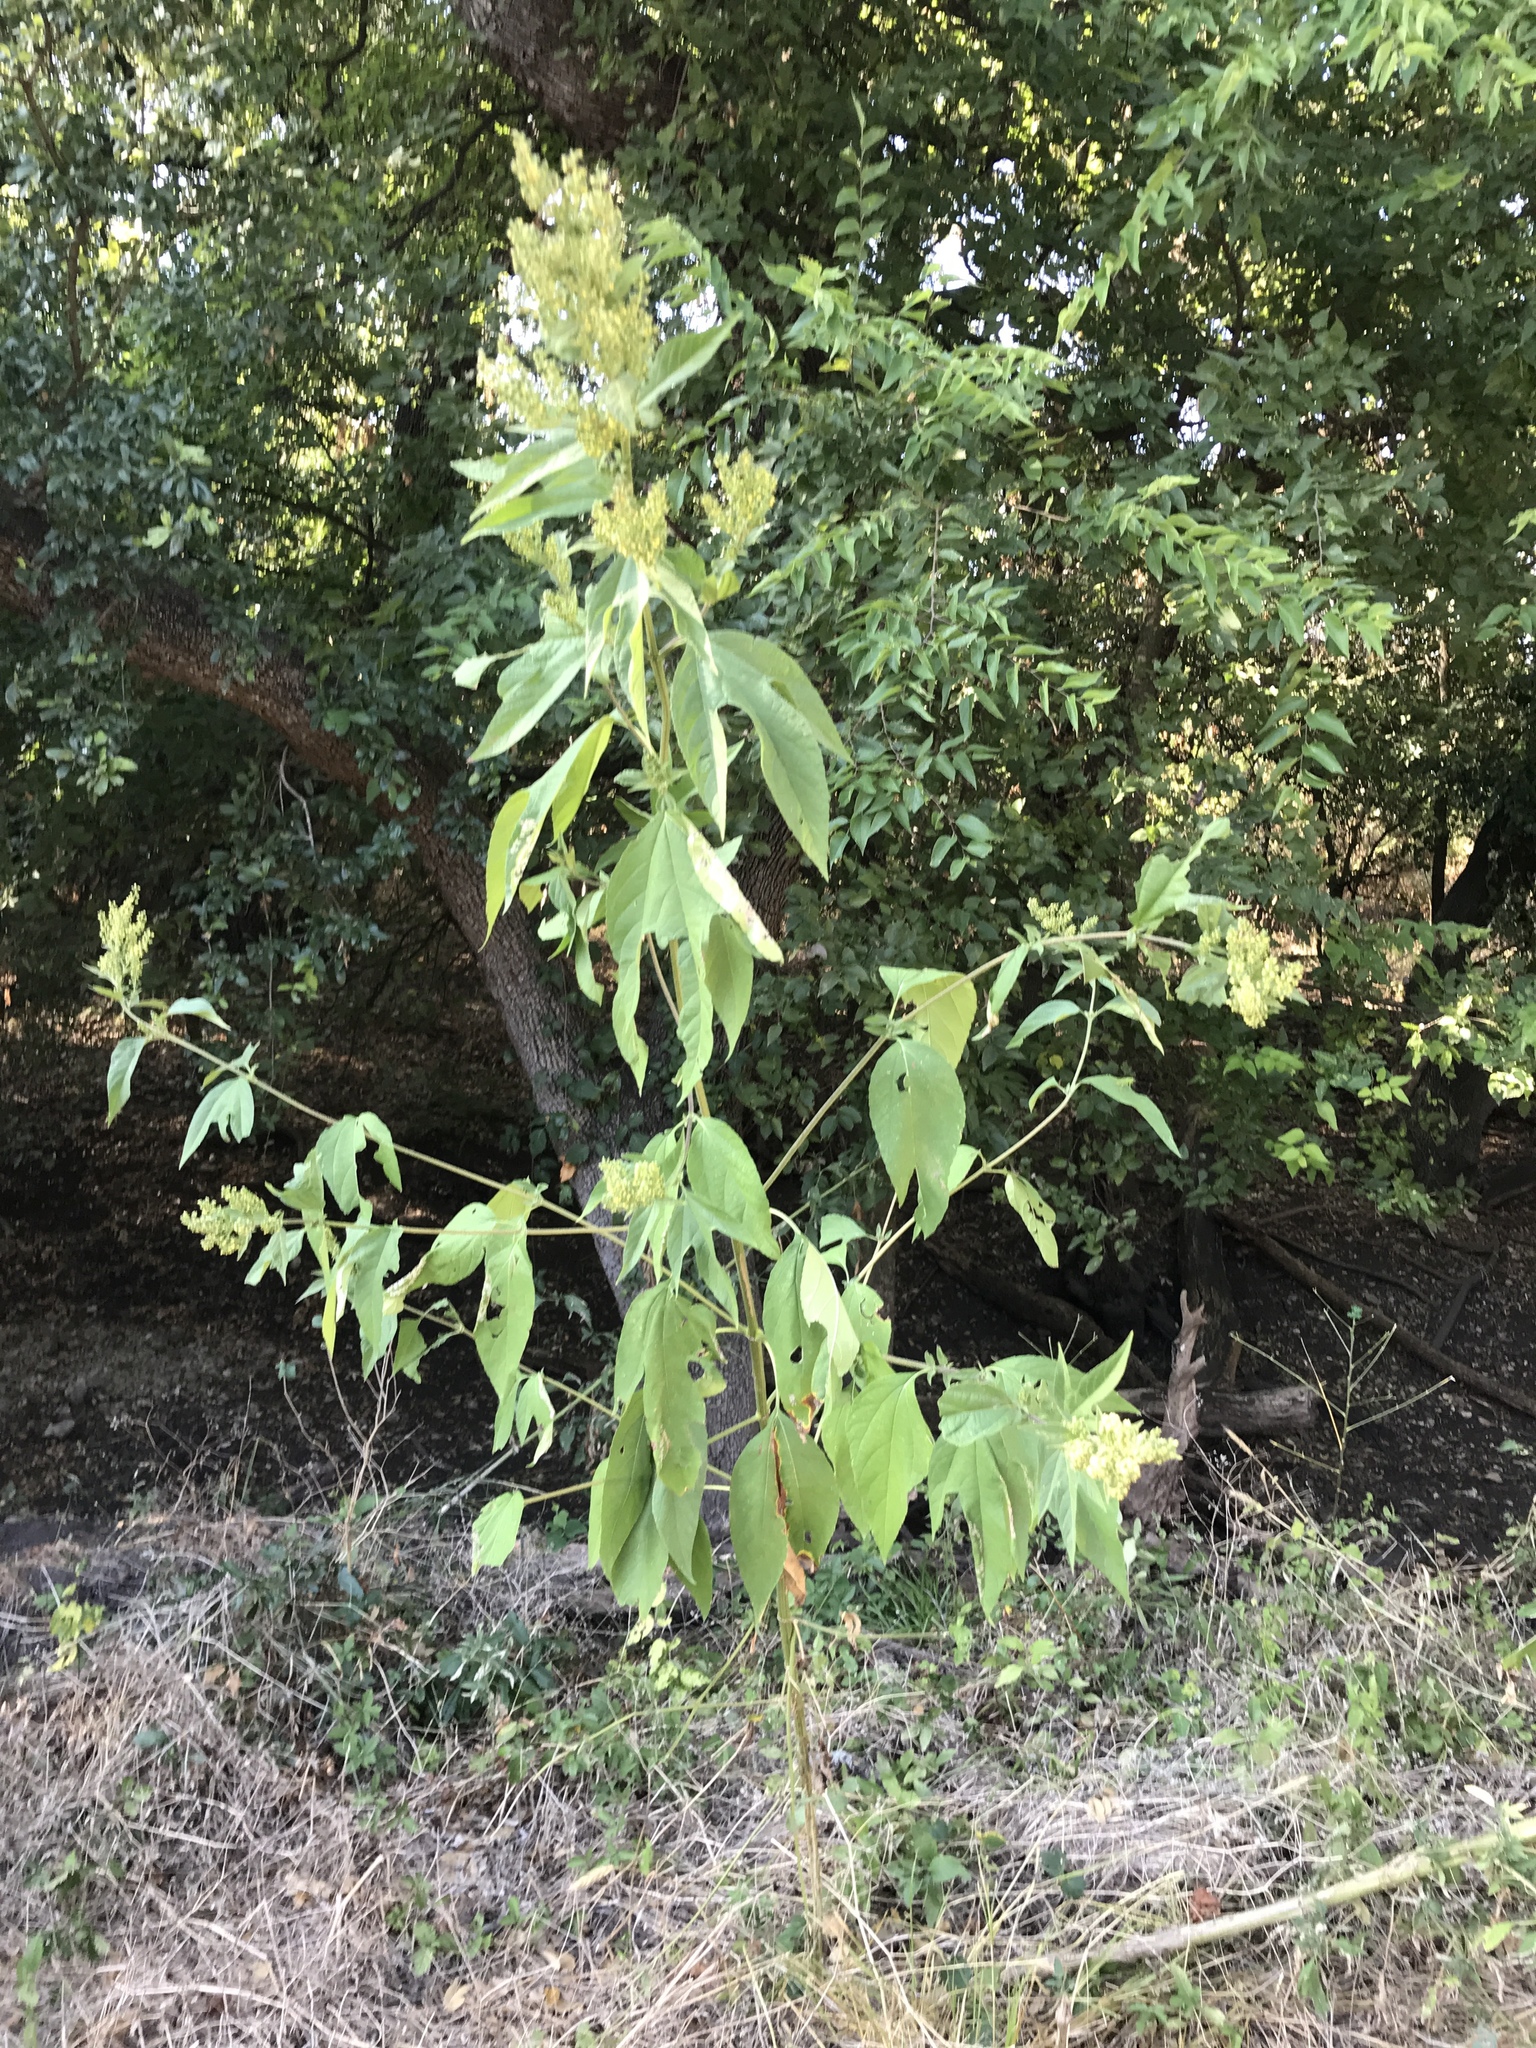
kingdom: Plantae
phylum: Tracheophyta
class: Magnoliopsida
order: Asterales
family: Asteraceae
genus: Ambrosia
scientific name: Ambrosia trifida
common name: Giant ragweed
